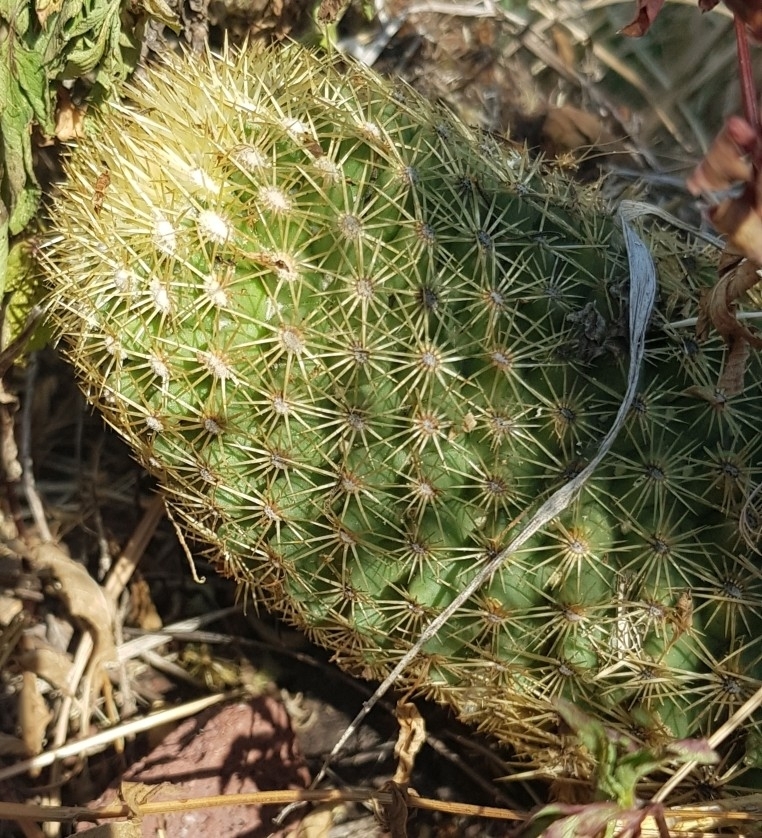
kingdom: Plantae
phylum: Tracheophyta
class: Magnoliopsida
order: Caryophyllales
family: Cactaceae
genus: Coryphantha
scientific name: Coryphantha erecta
